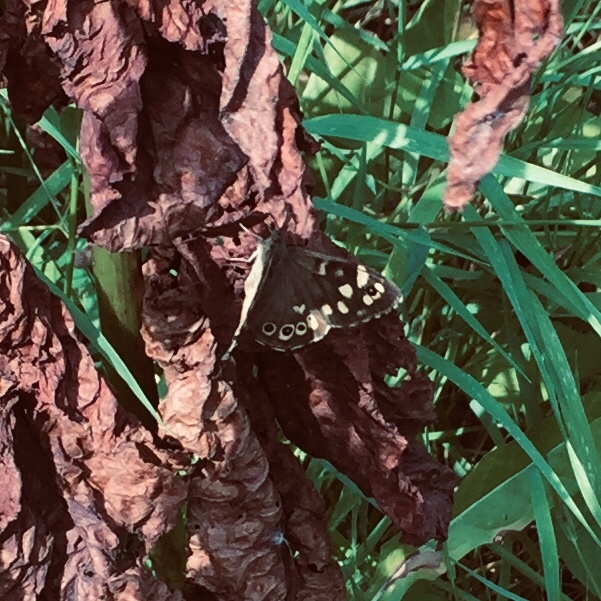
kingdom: Animalia
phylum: Arthropoda
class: Insecta
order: Lepidoptera
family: Nymphalidae
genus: Pararge
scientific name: Pararge aegeria
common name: Speckled wood
